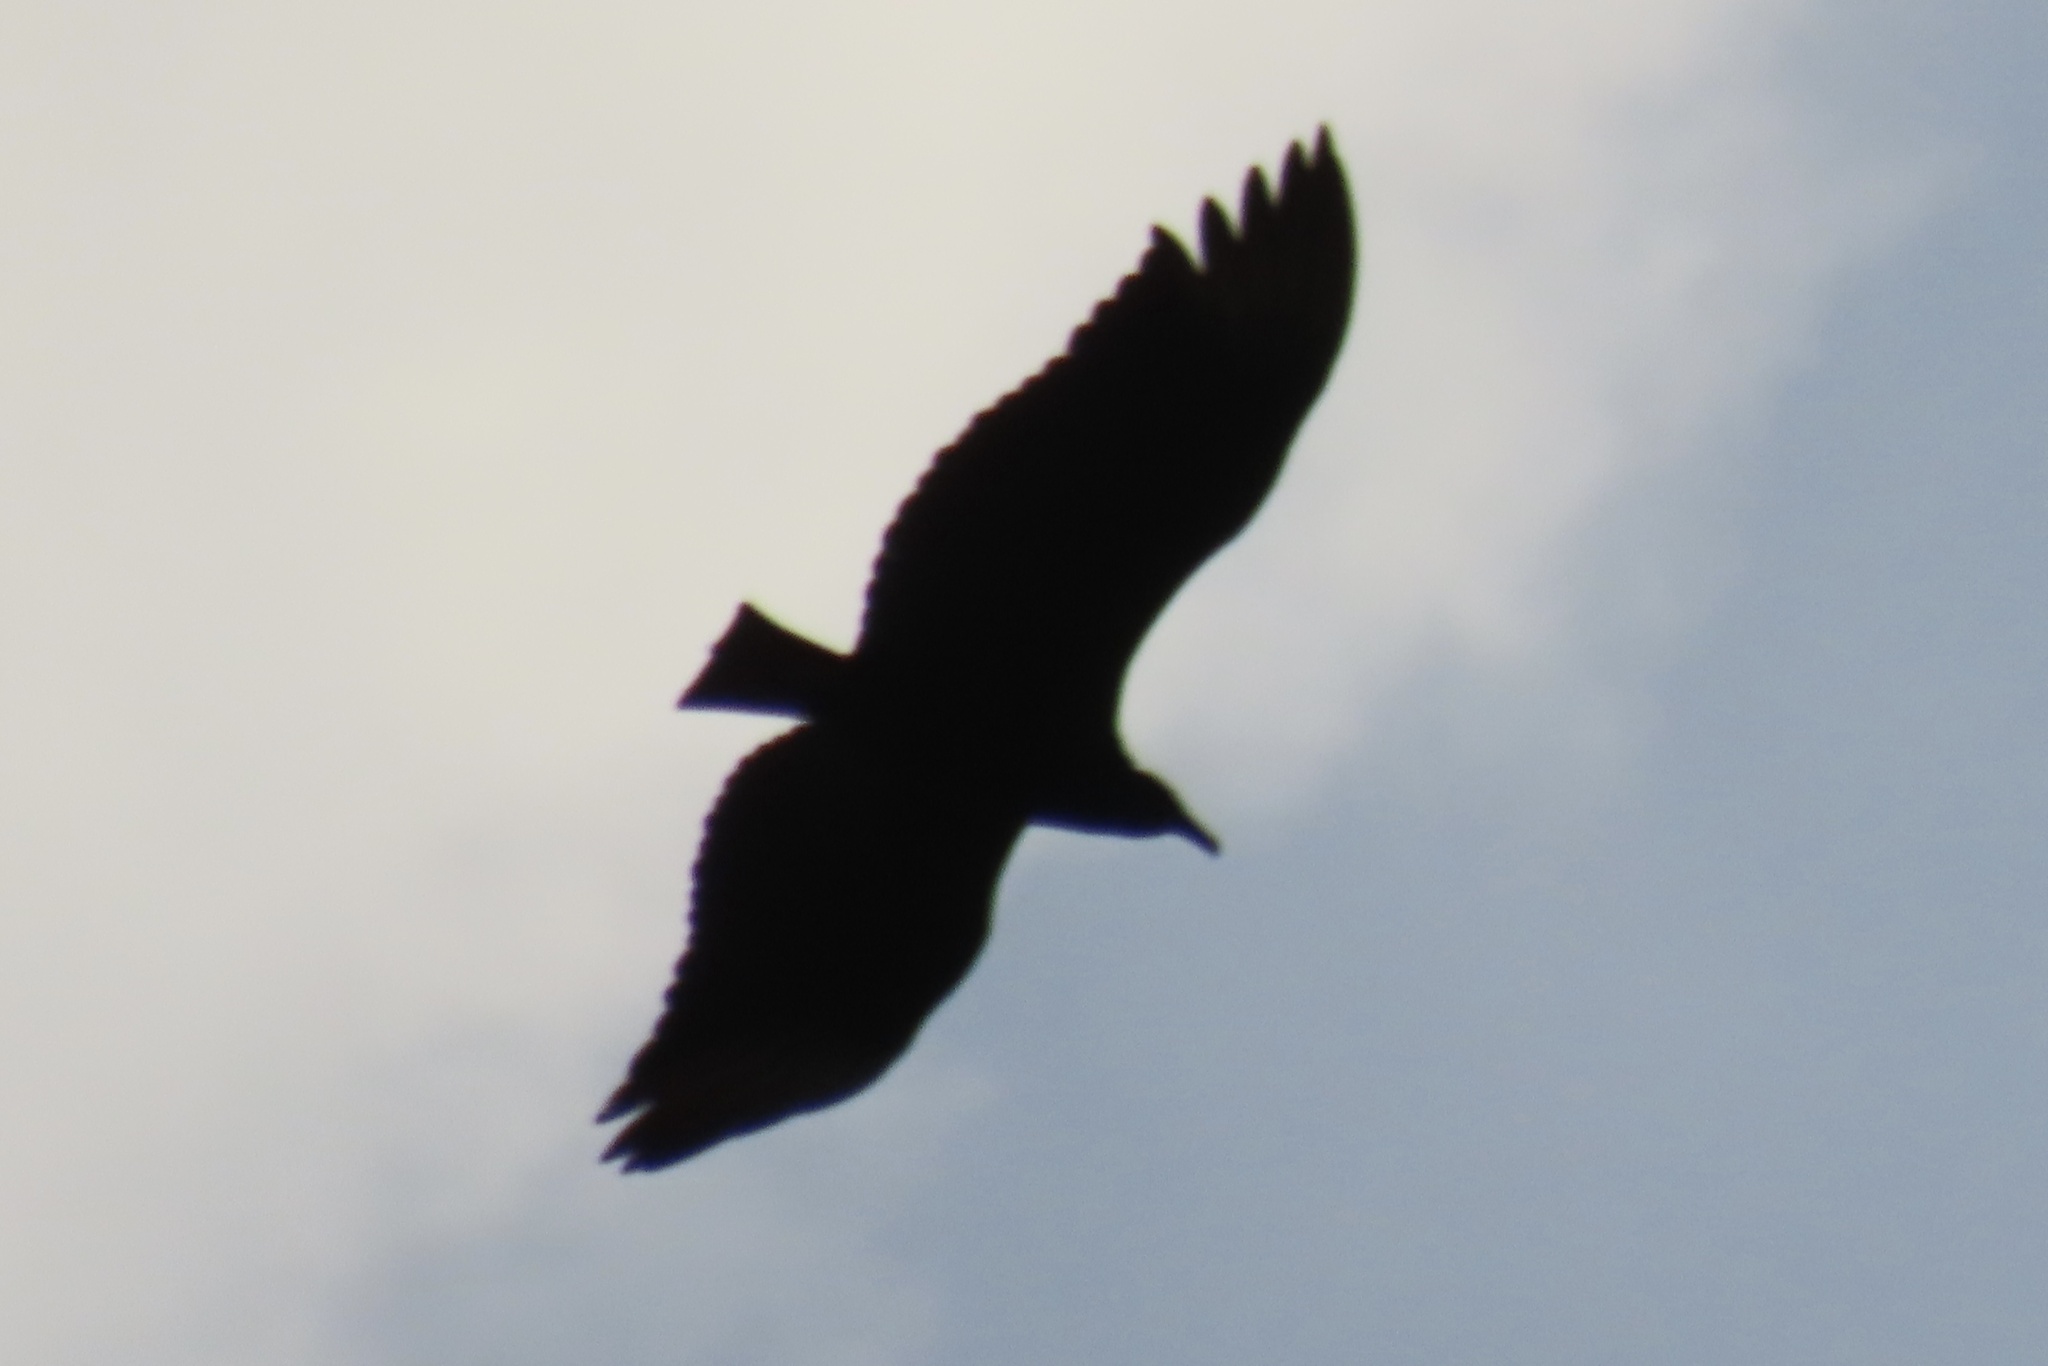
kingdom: Animalia
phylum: Chordata
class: Aves
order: Accipitriformes
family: Cathartidae
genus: Coragyps
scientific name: Coragyps atratus
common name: Black vulture
